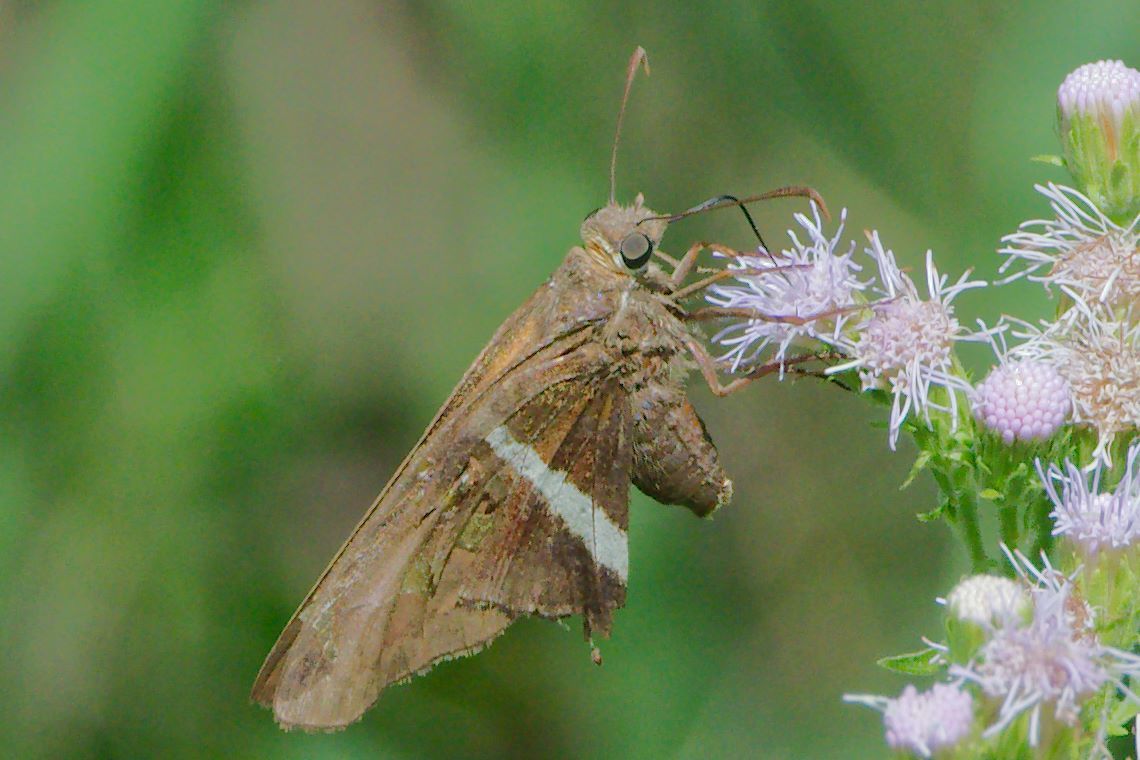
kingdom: Animalia
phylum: Arthropoda
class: Insecta
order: Lepidoptera
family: Hesperiidae
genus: Chioides
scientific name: Chioides catillus
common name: Silverbanded skipper
